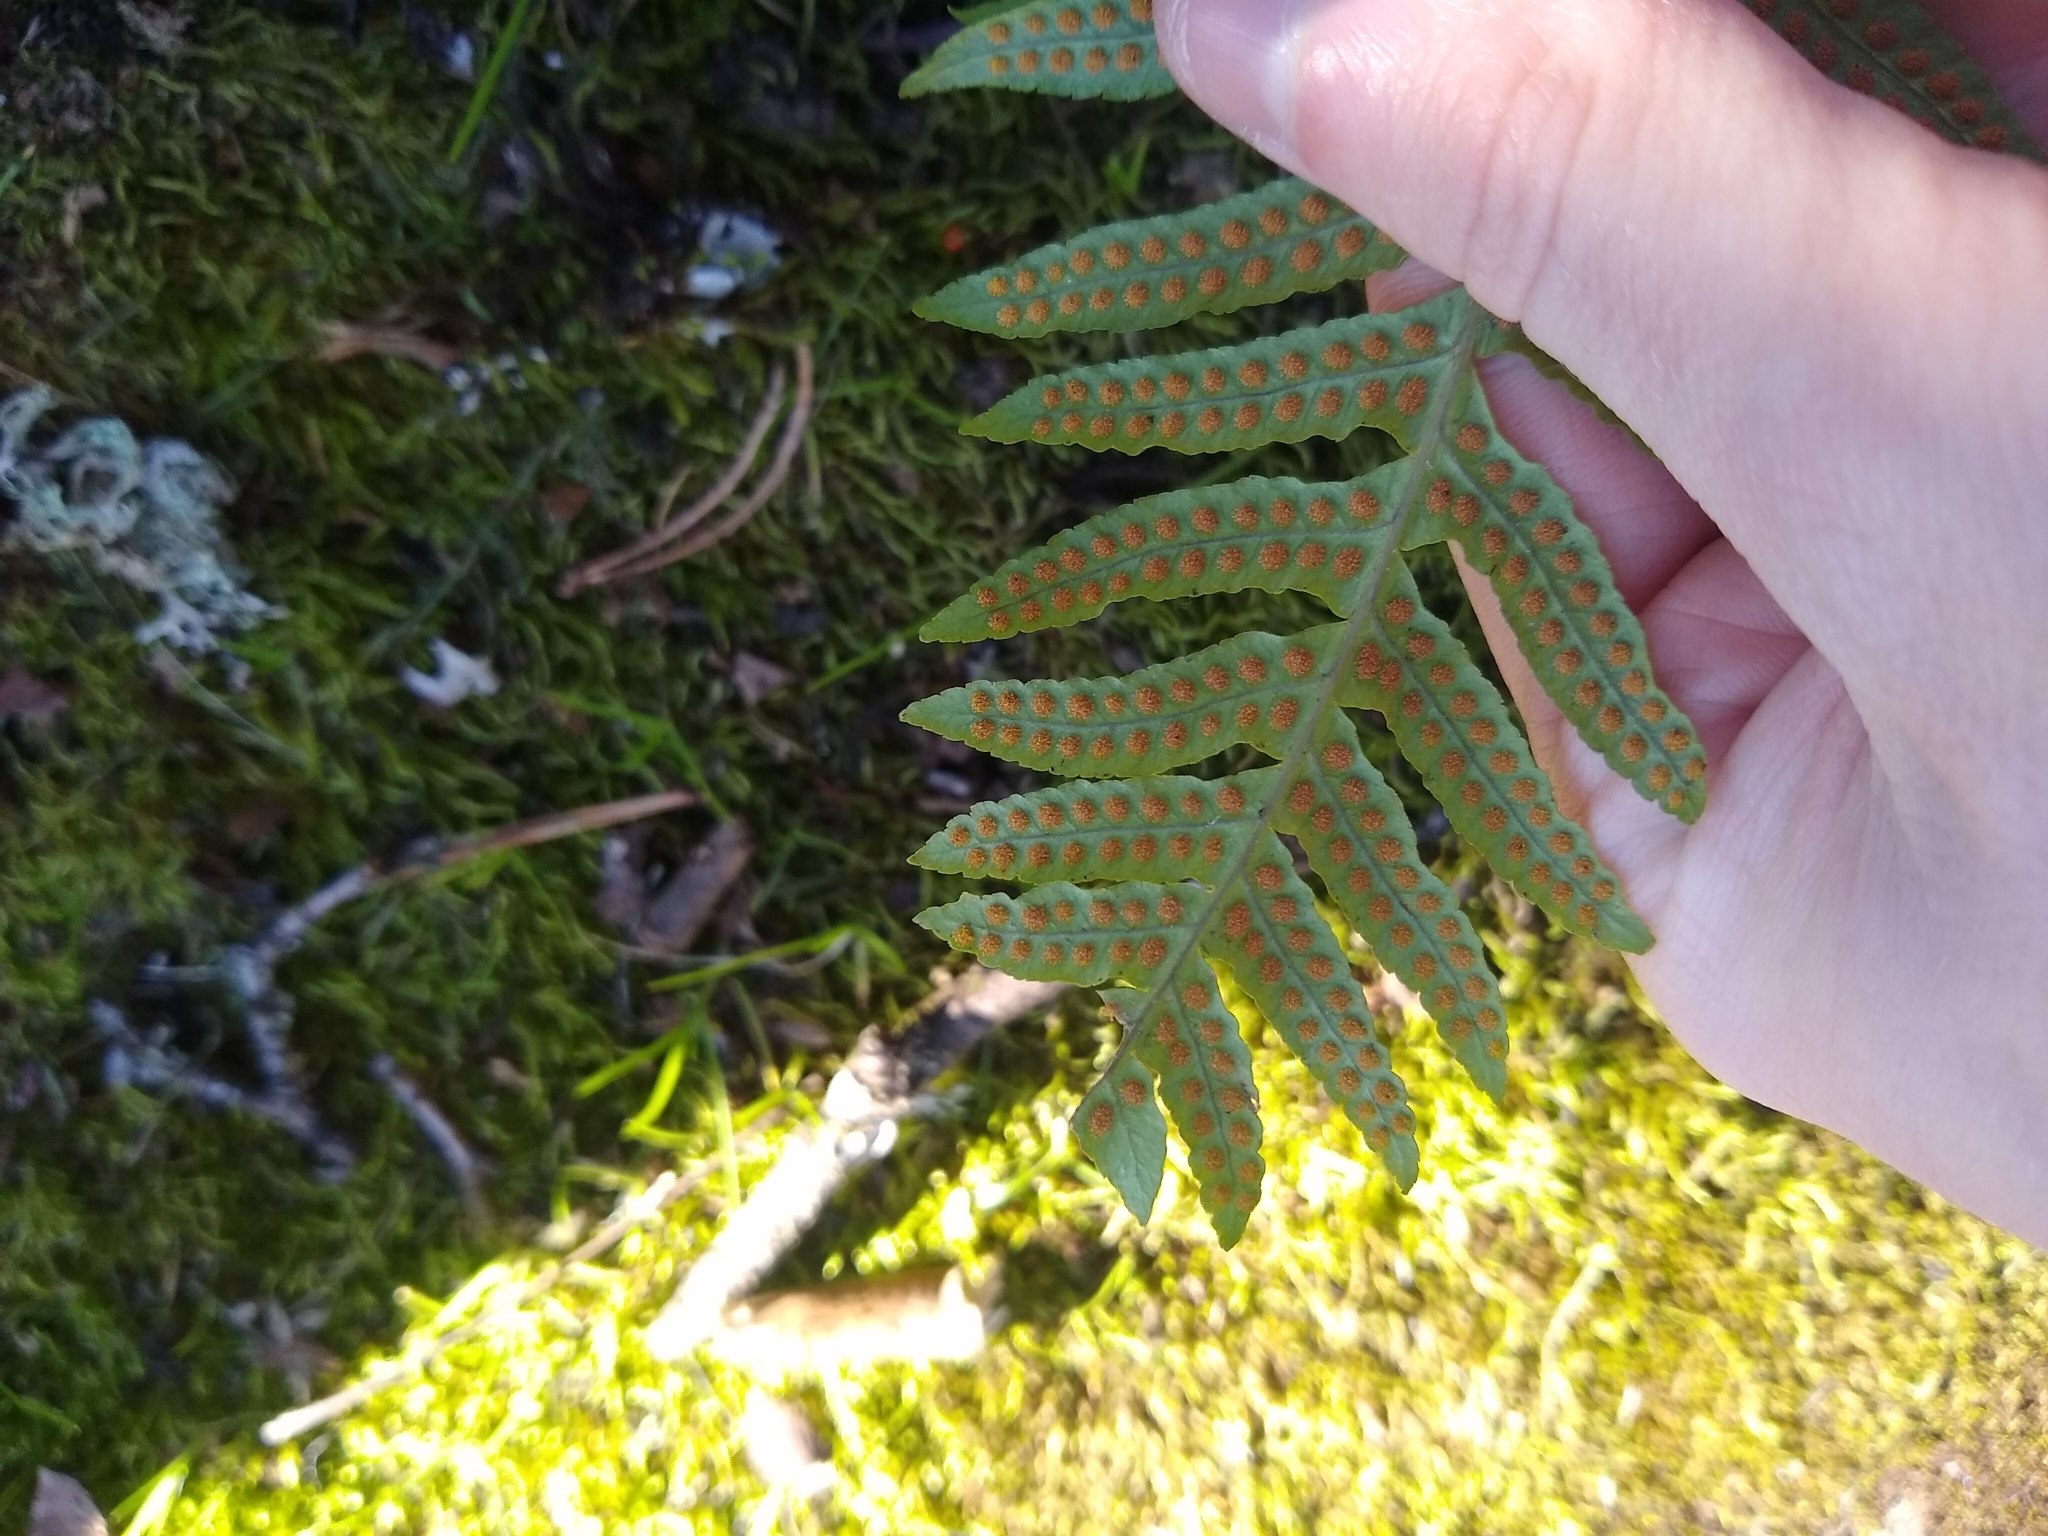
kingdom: Plantae
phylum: Tracheophyta
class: Polypodiopsida
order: Polypodiales
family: Polypodiaceae
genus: Polypodium
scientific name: Polypodium glycyrrhiza
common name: Licorice fern
